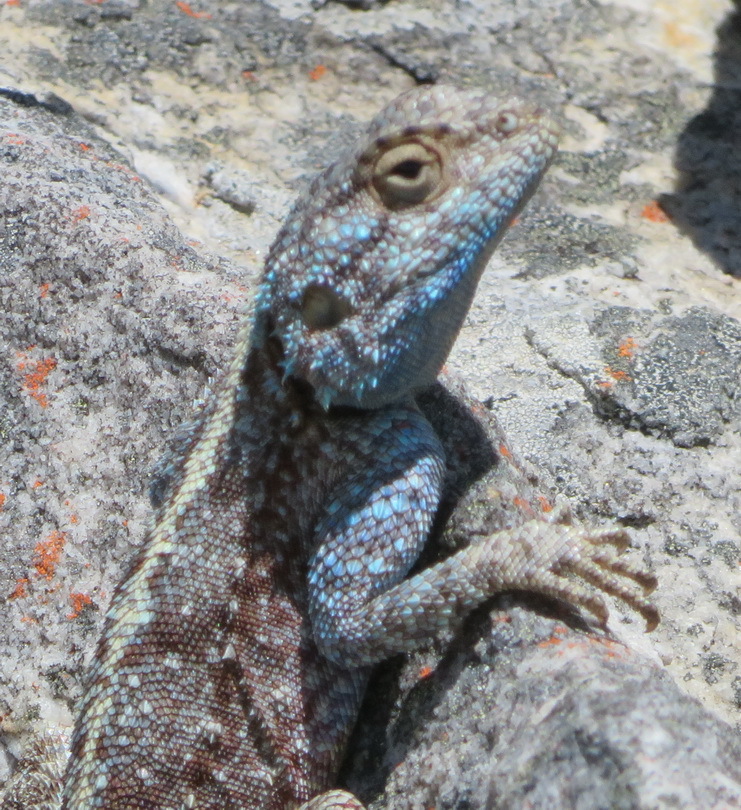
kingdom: Animalia
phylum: Chordata
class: Squamata
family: Agamidae
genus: Agama
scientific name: Agama atra
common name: Southern african rock agama
